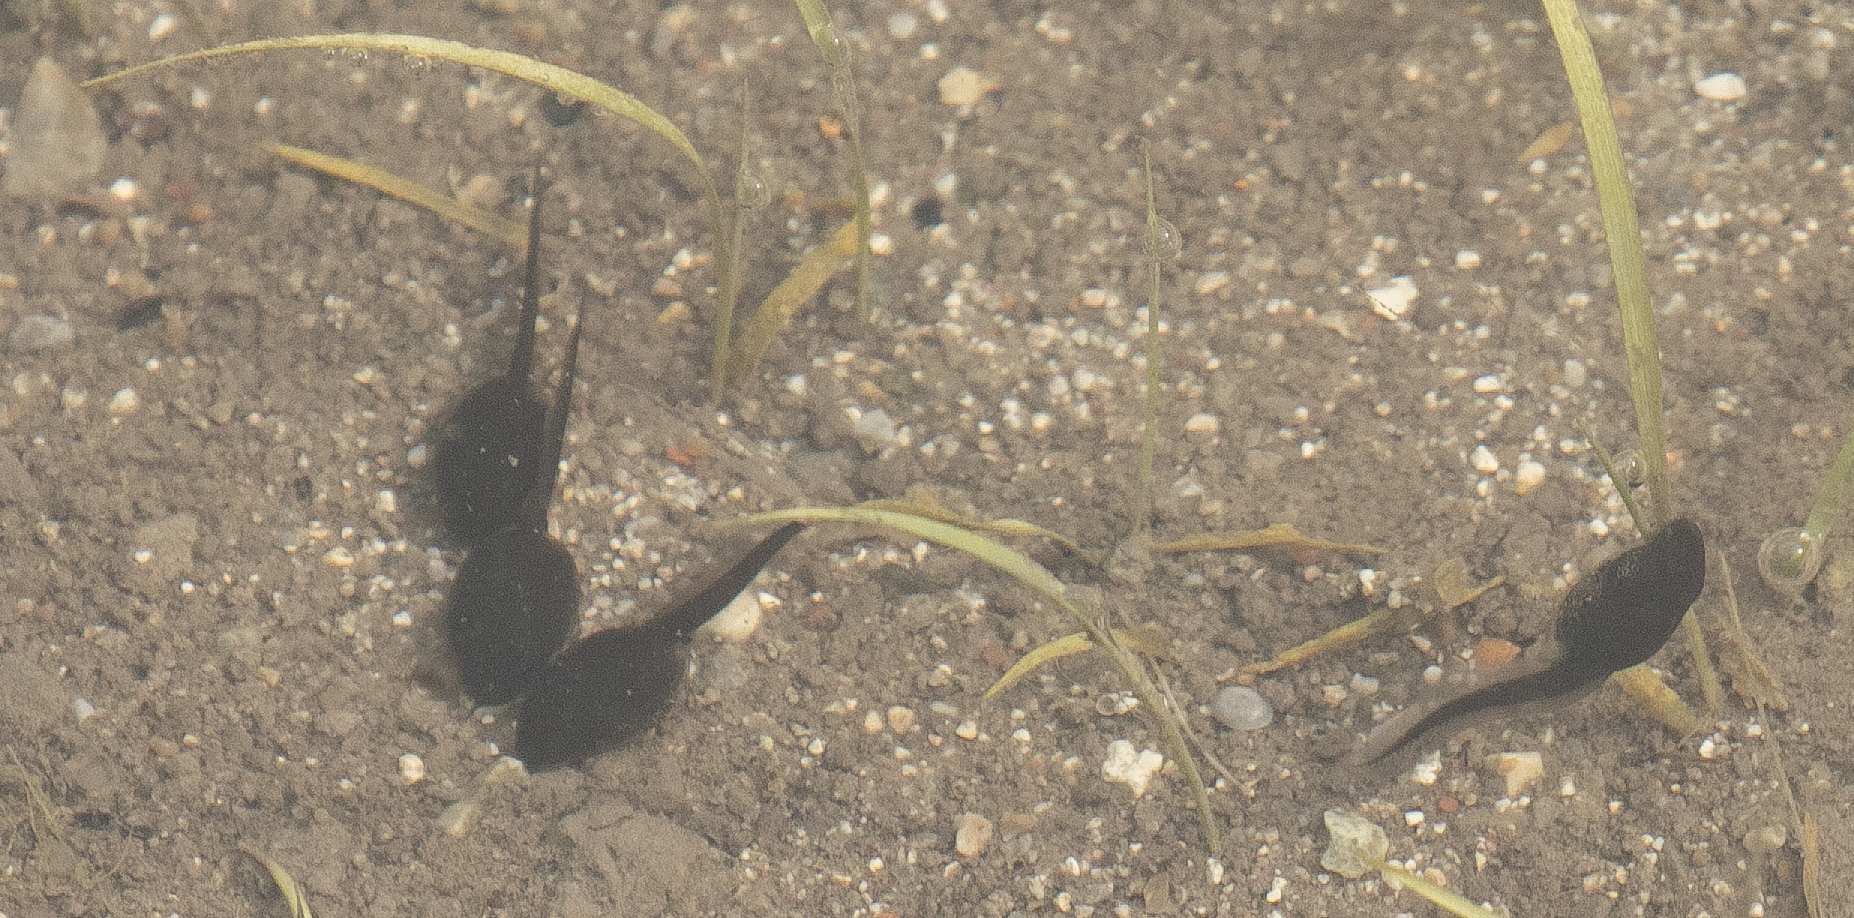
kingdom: Animalia
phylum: Chordata
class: Amphibia
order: Anura
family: Bufonidae
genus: Bufotes
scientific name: Bufotes viridis
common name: European green toad
